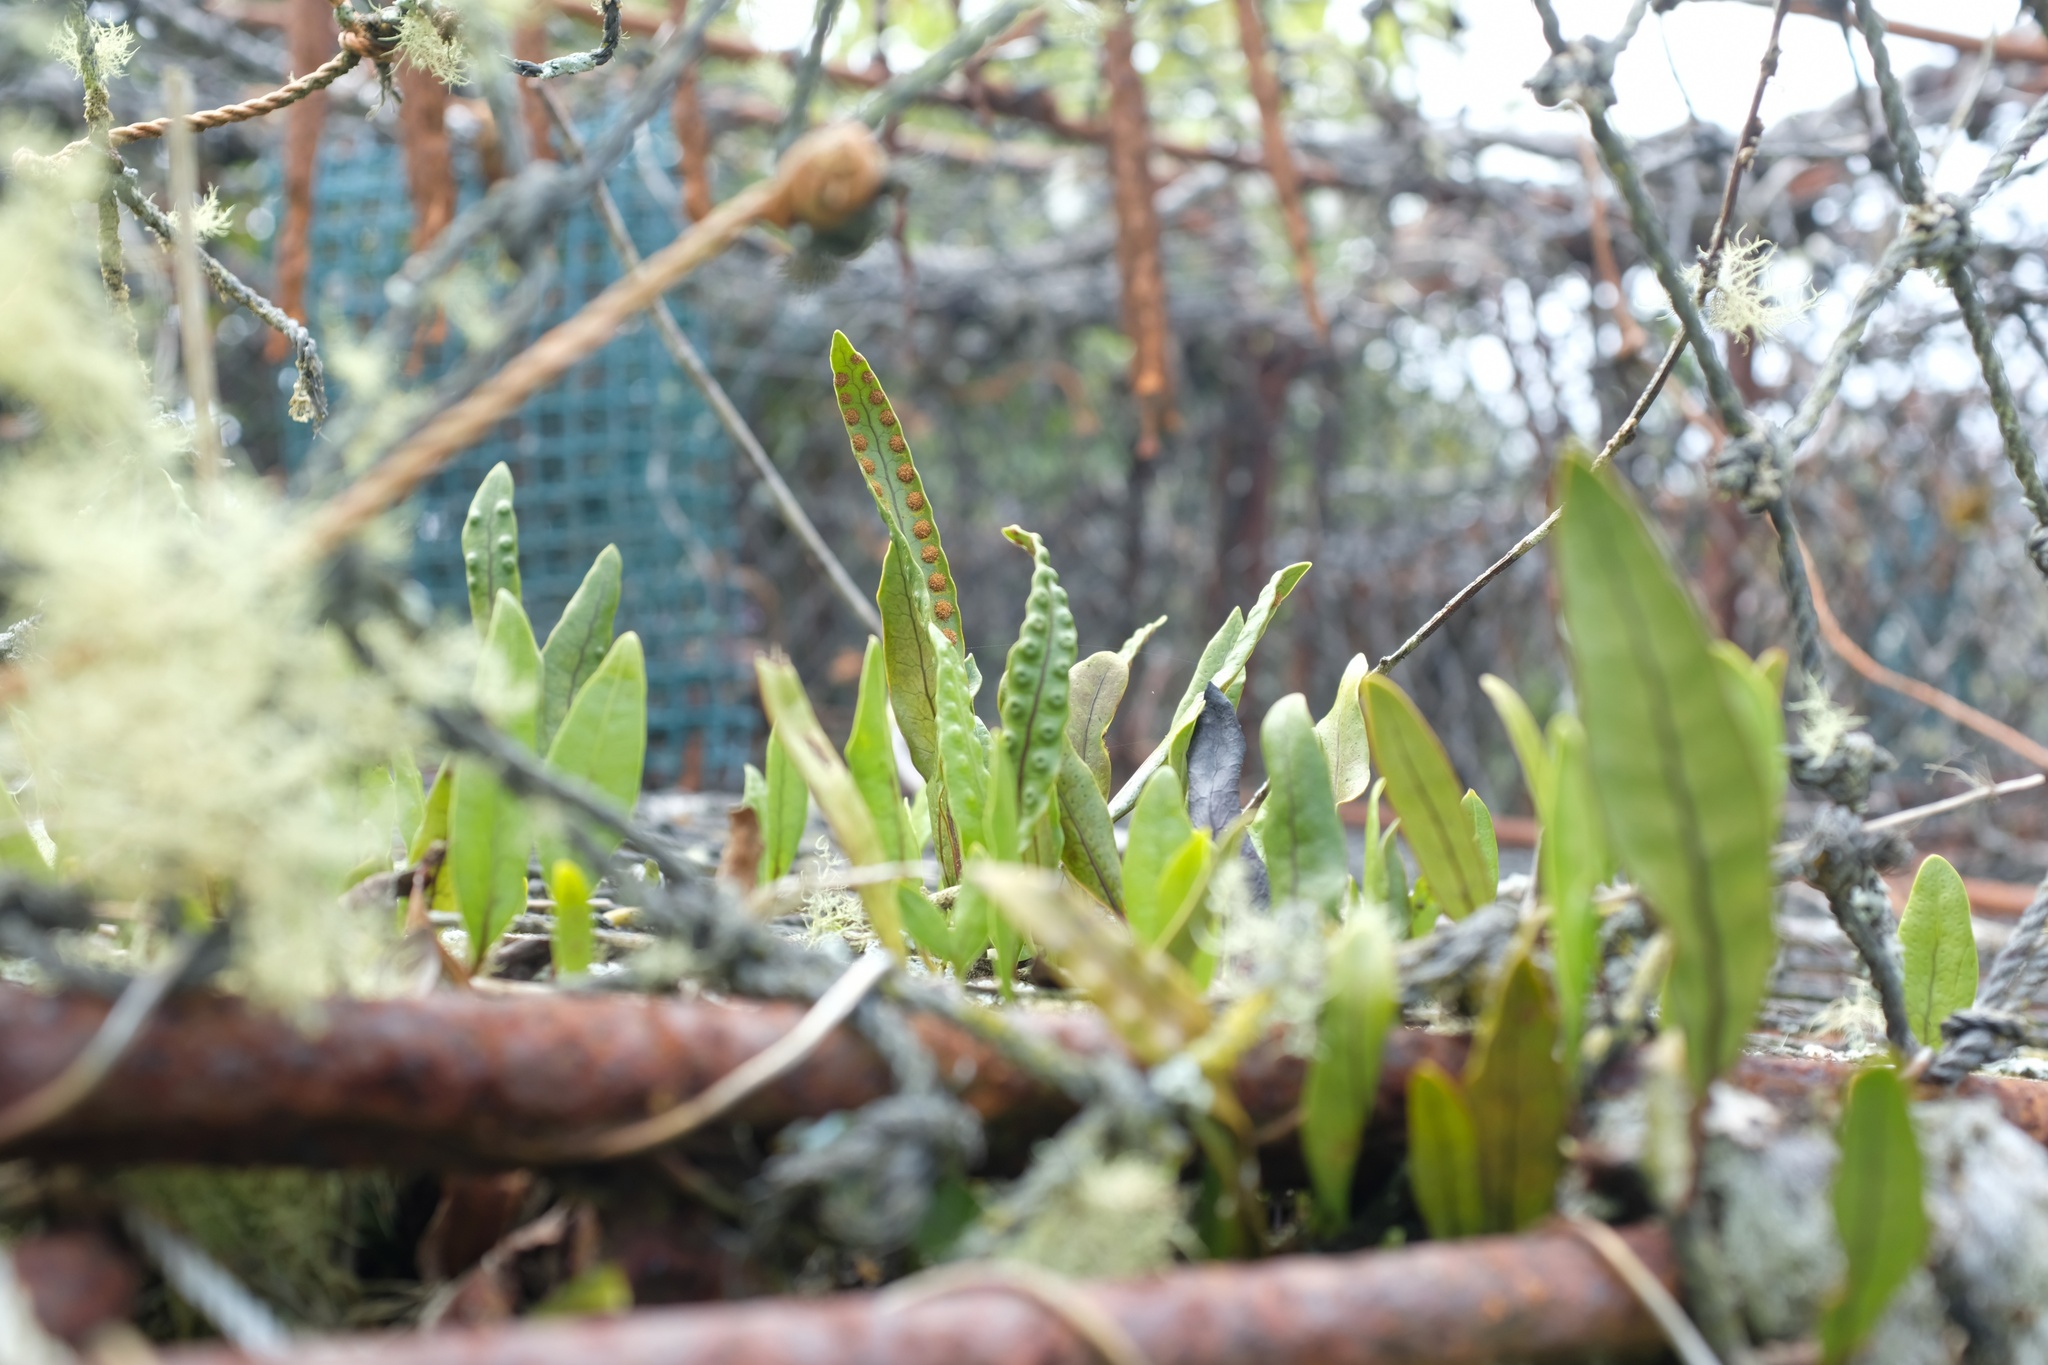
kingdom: Plantae
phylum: Tracheophyta
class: Polypodiopsida
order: Polypodiales
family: Polypodiaceae
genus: Lecanopteris
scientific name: Lecanopteris pustulata
